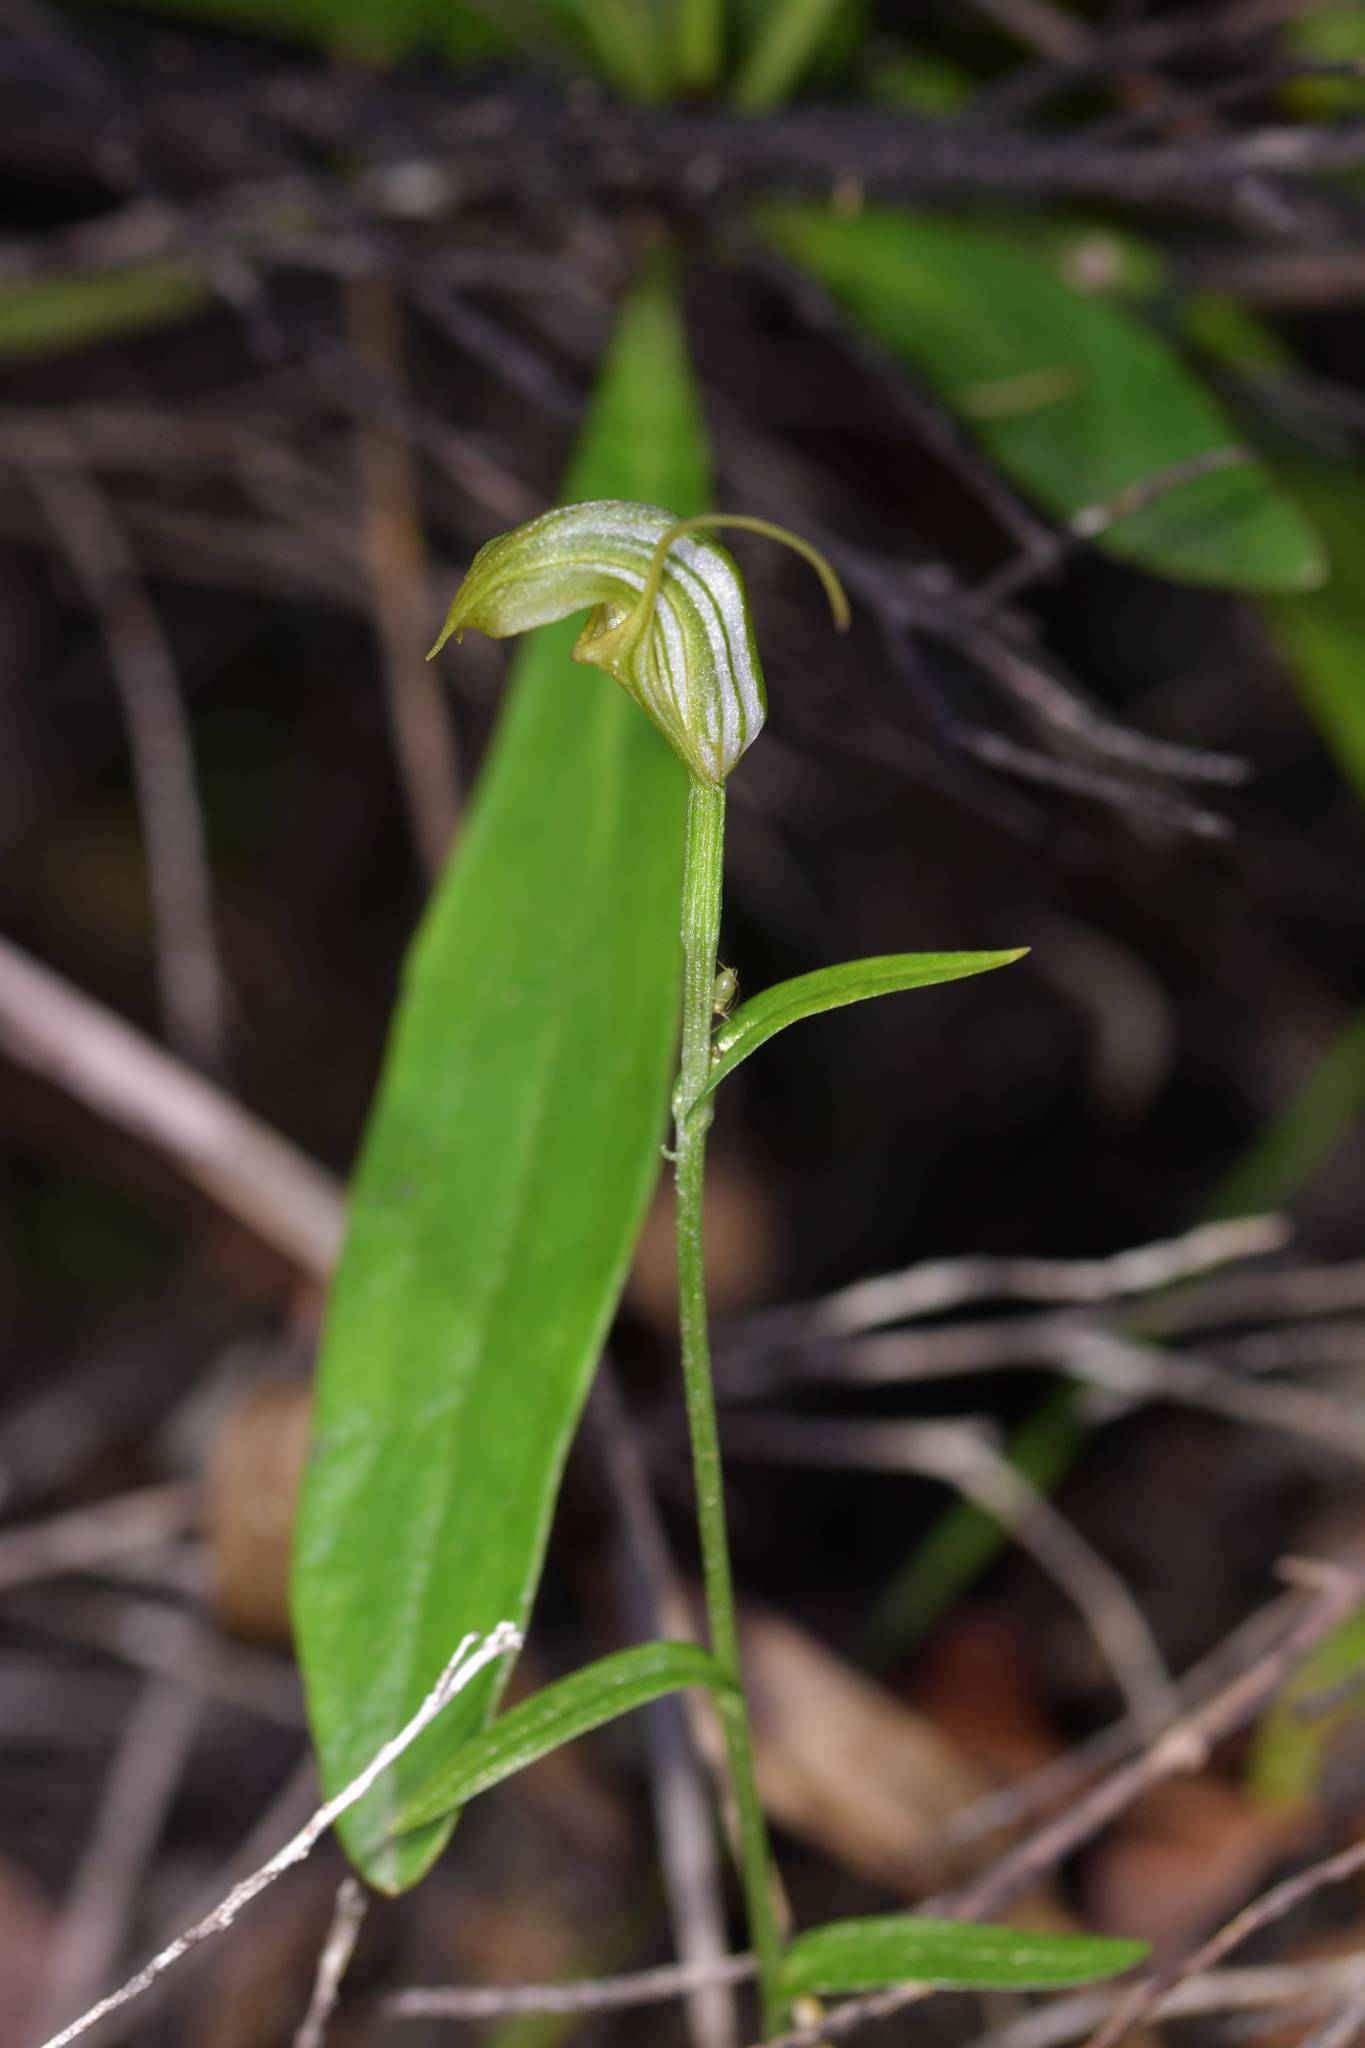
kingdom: Plantae
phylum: Tracheophyta
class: Liliopsida
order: Asparagales
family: Orchidaceae
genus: Pterostylis
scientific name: Pterostylis trullifolia
